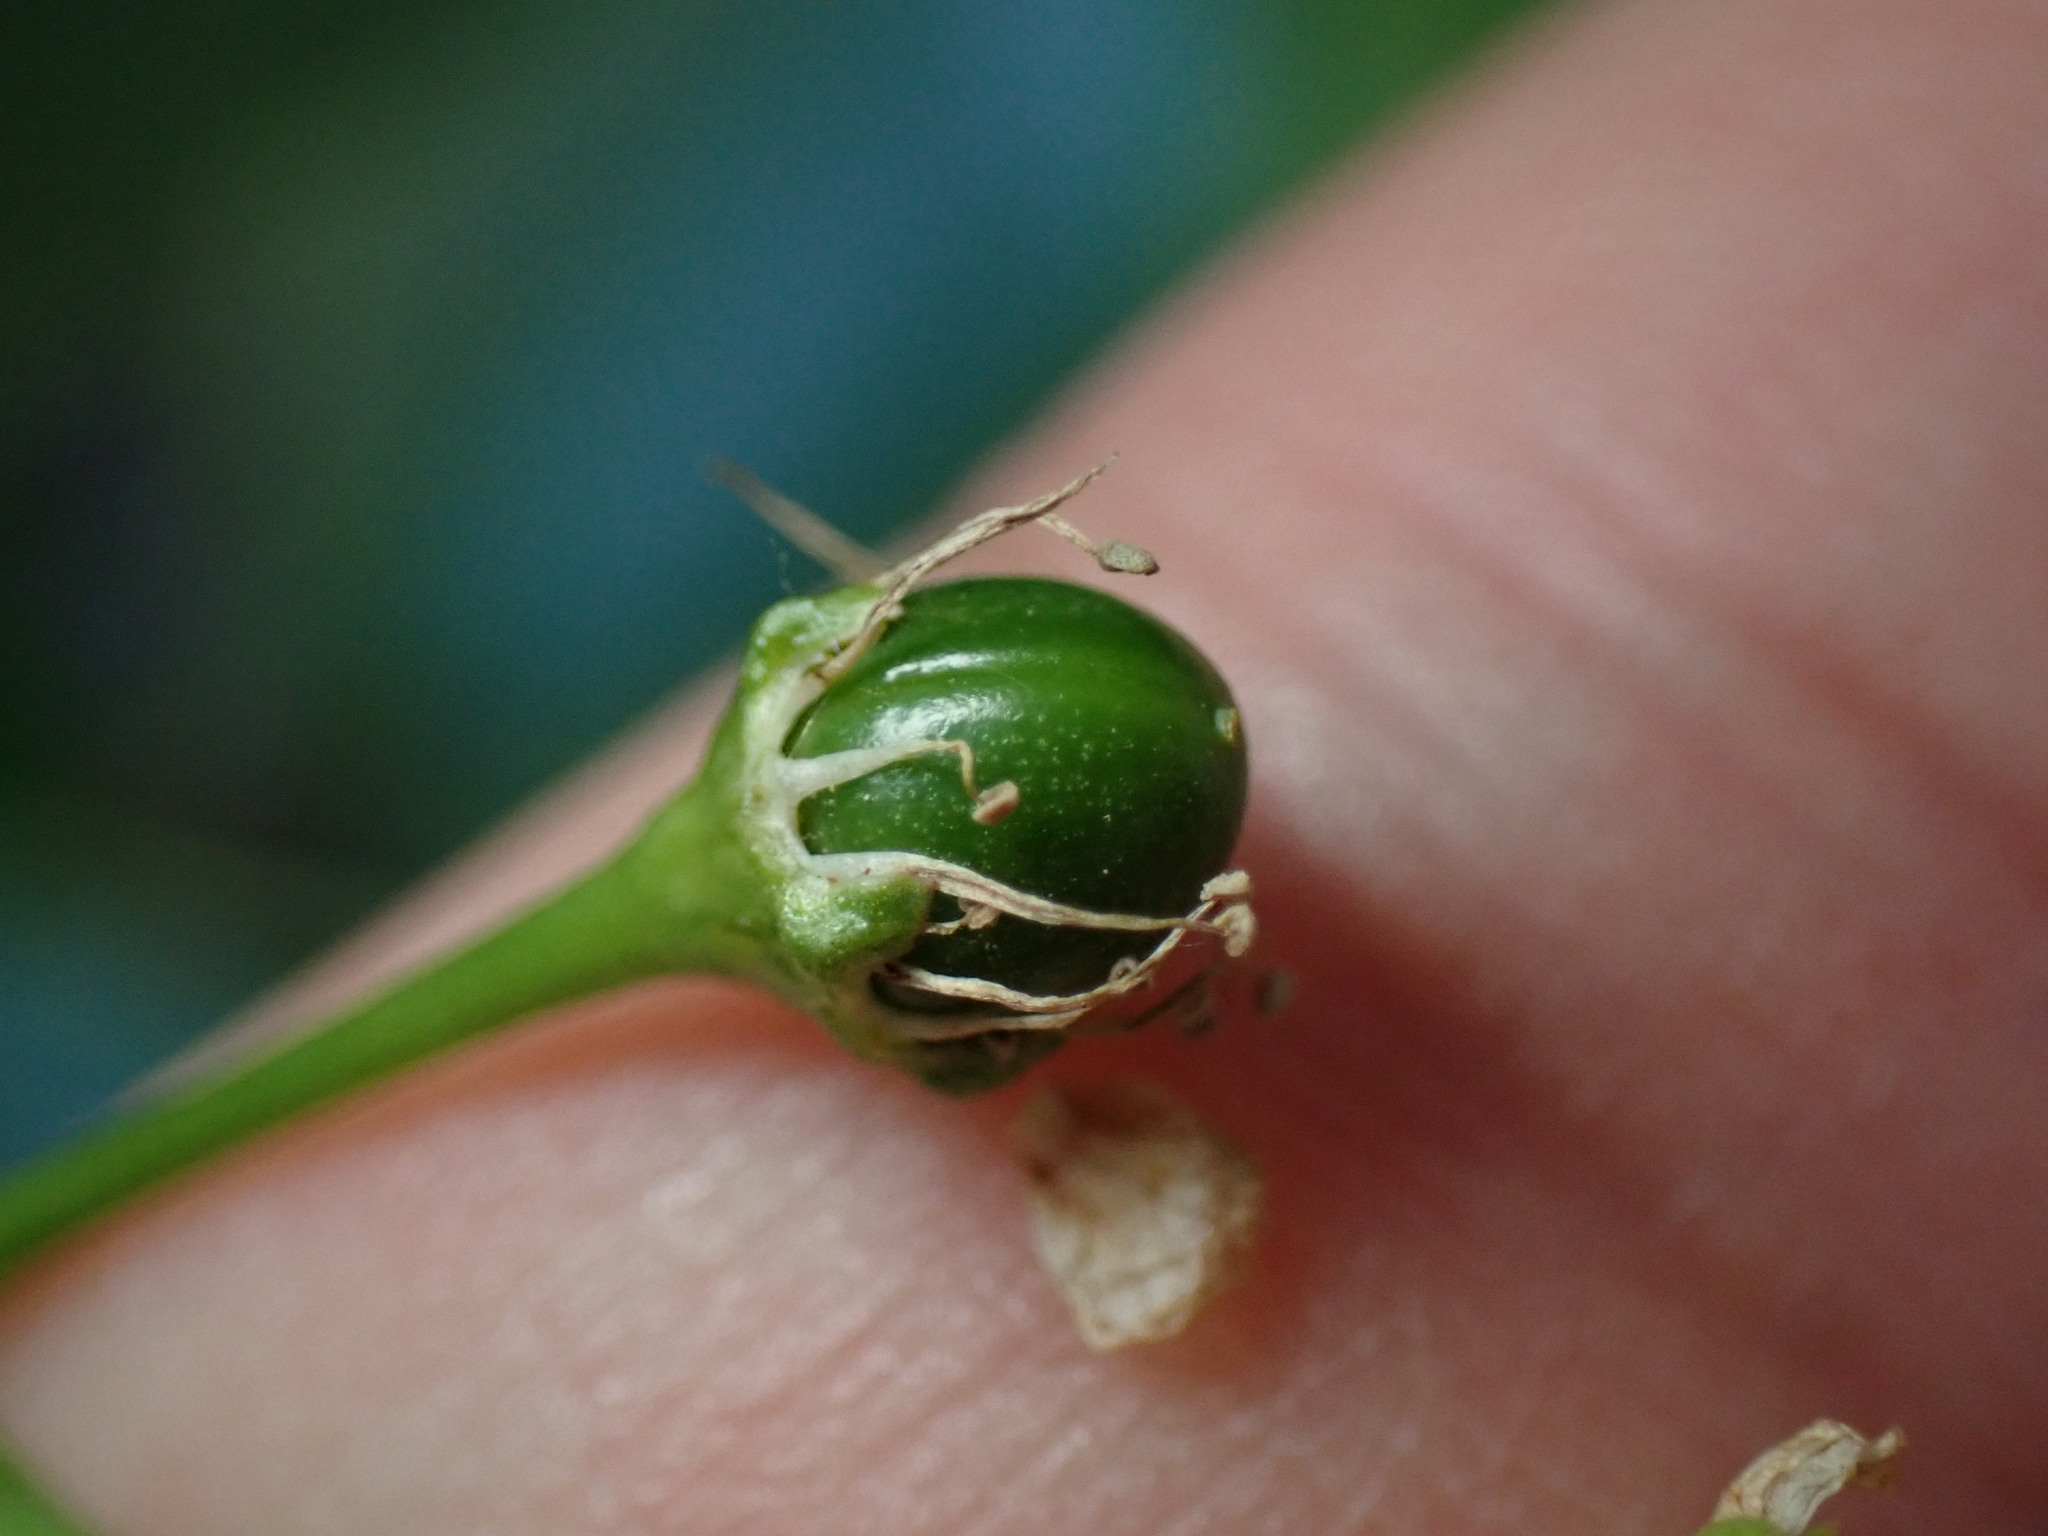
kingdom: Plantae
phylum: Tracheophyta
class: Magnoliopsida
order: Rosales
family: Rosaceae
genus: Prunus
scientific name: Prunus serotina
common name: Black cherry
